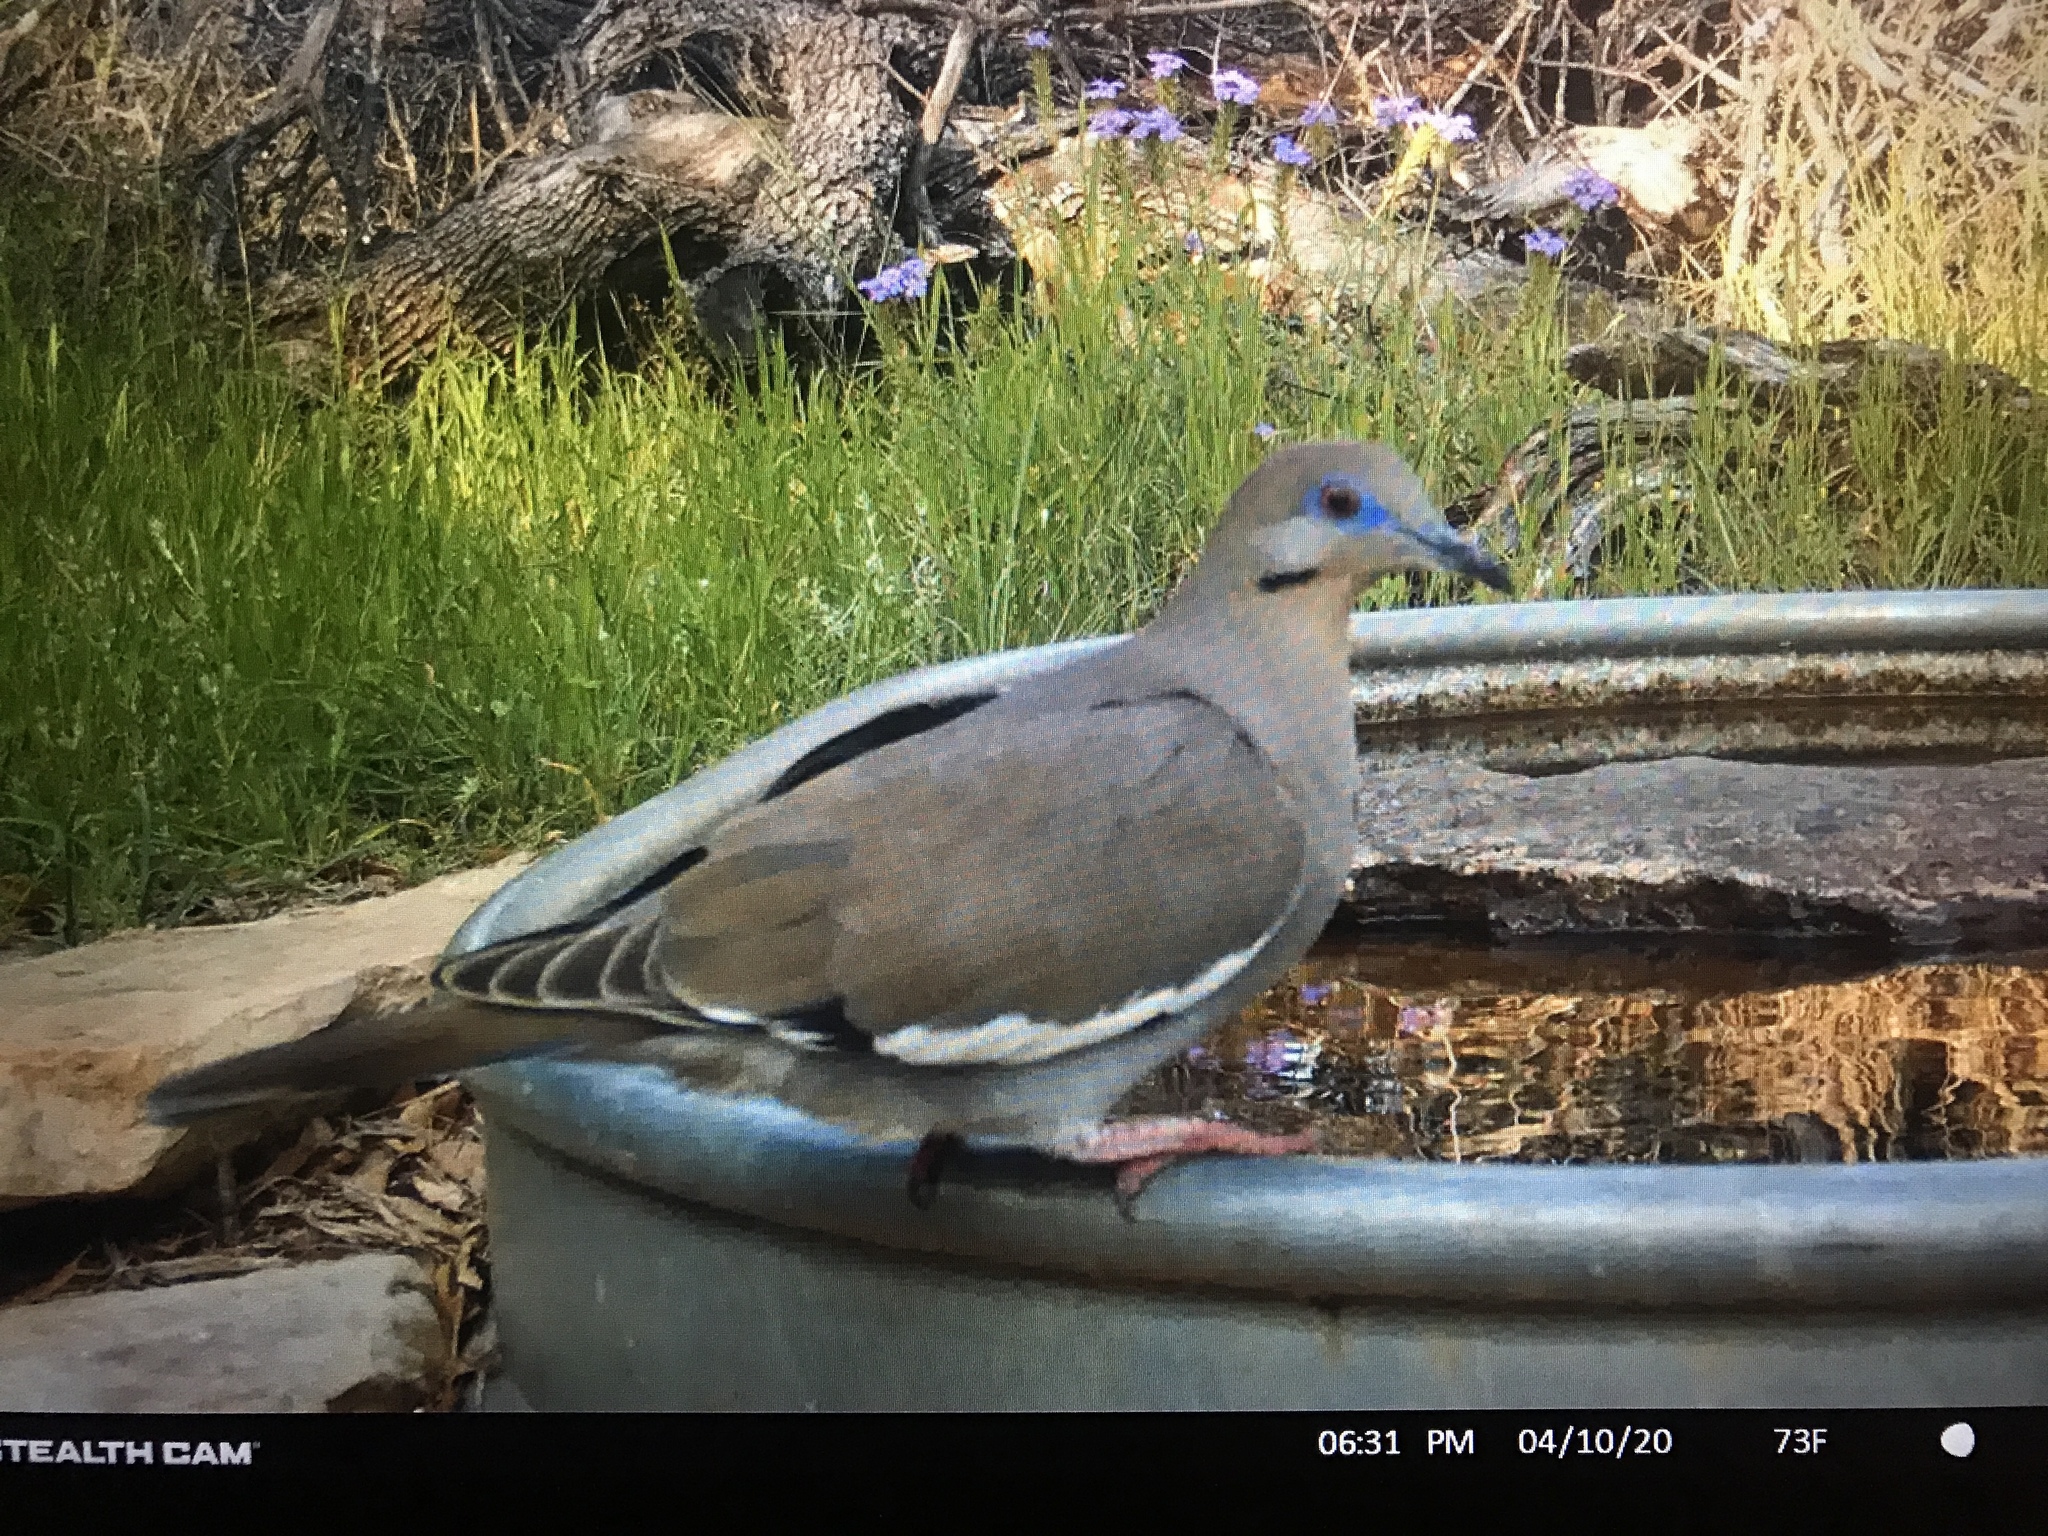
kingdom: Animalia
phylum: Chordata
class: Aves
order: Columbiformes
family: Columbidae
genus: Zenaida
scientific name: Zenaida asiatica
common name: White-winged dove
